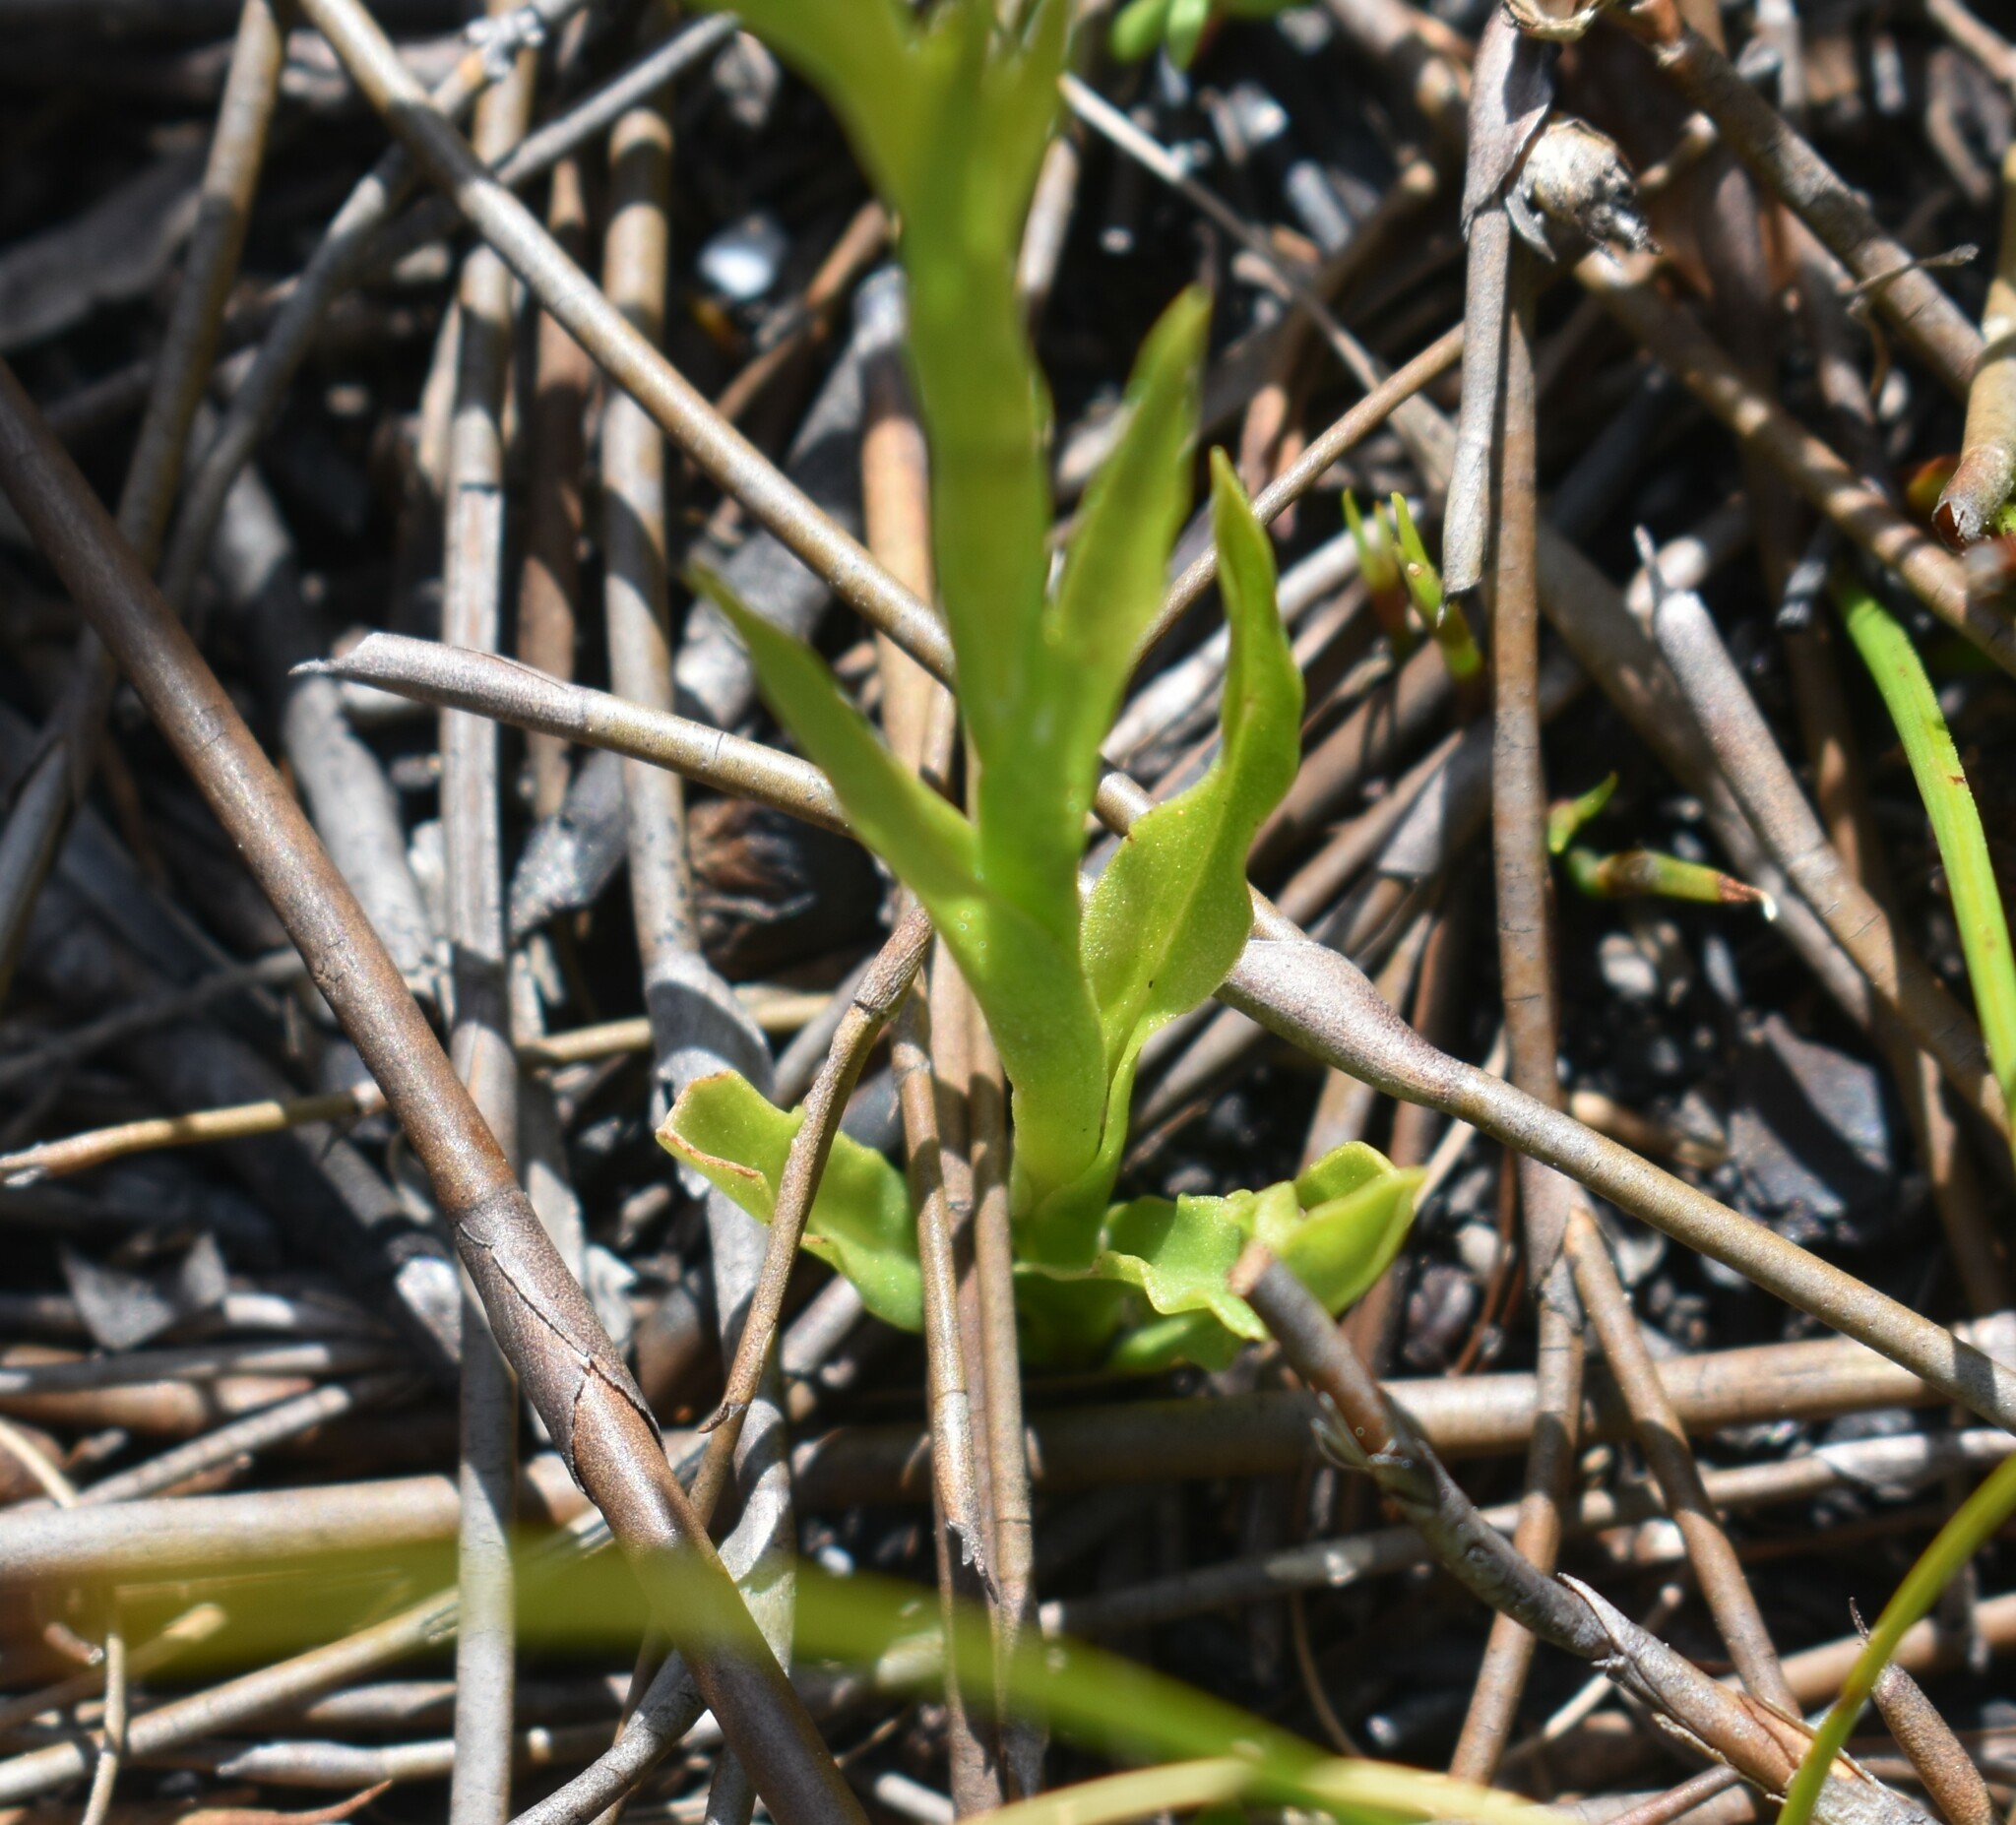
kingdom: Plantae
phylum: Tracheophyta
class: Liliopsida
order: Asparagales
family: Orchidaceae
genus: Disa
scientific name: Disa cylindrica
